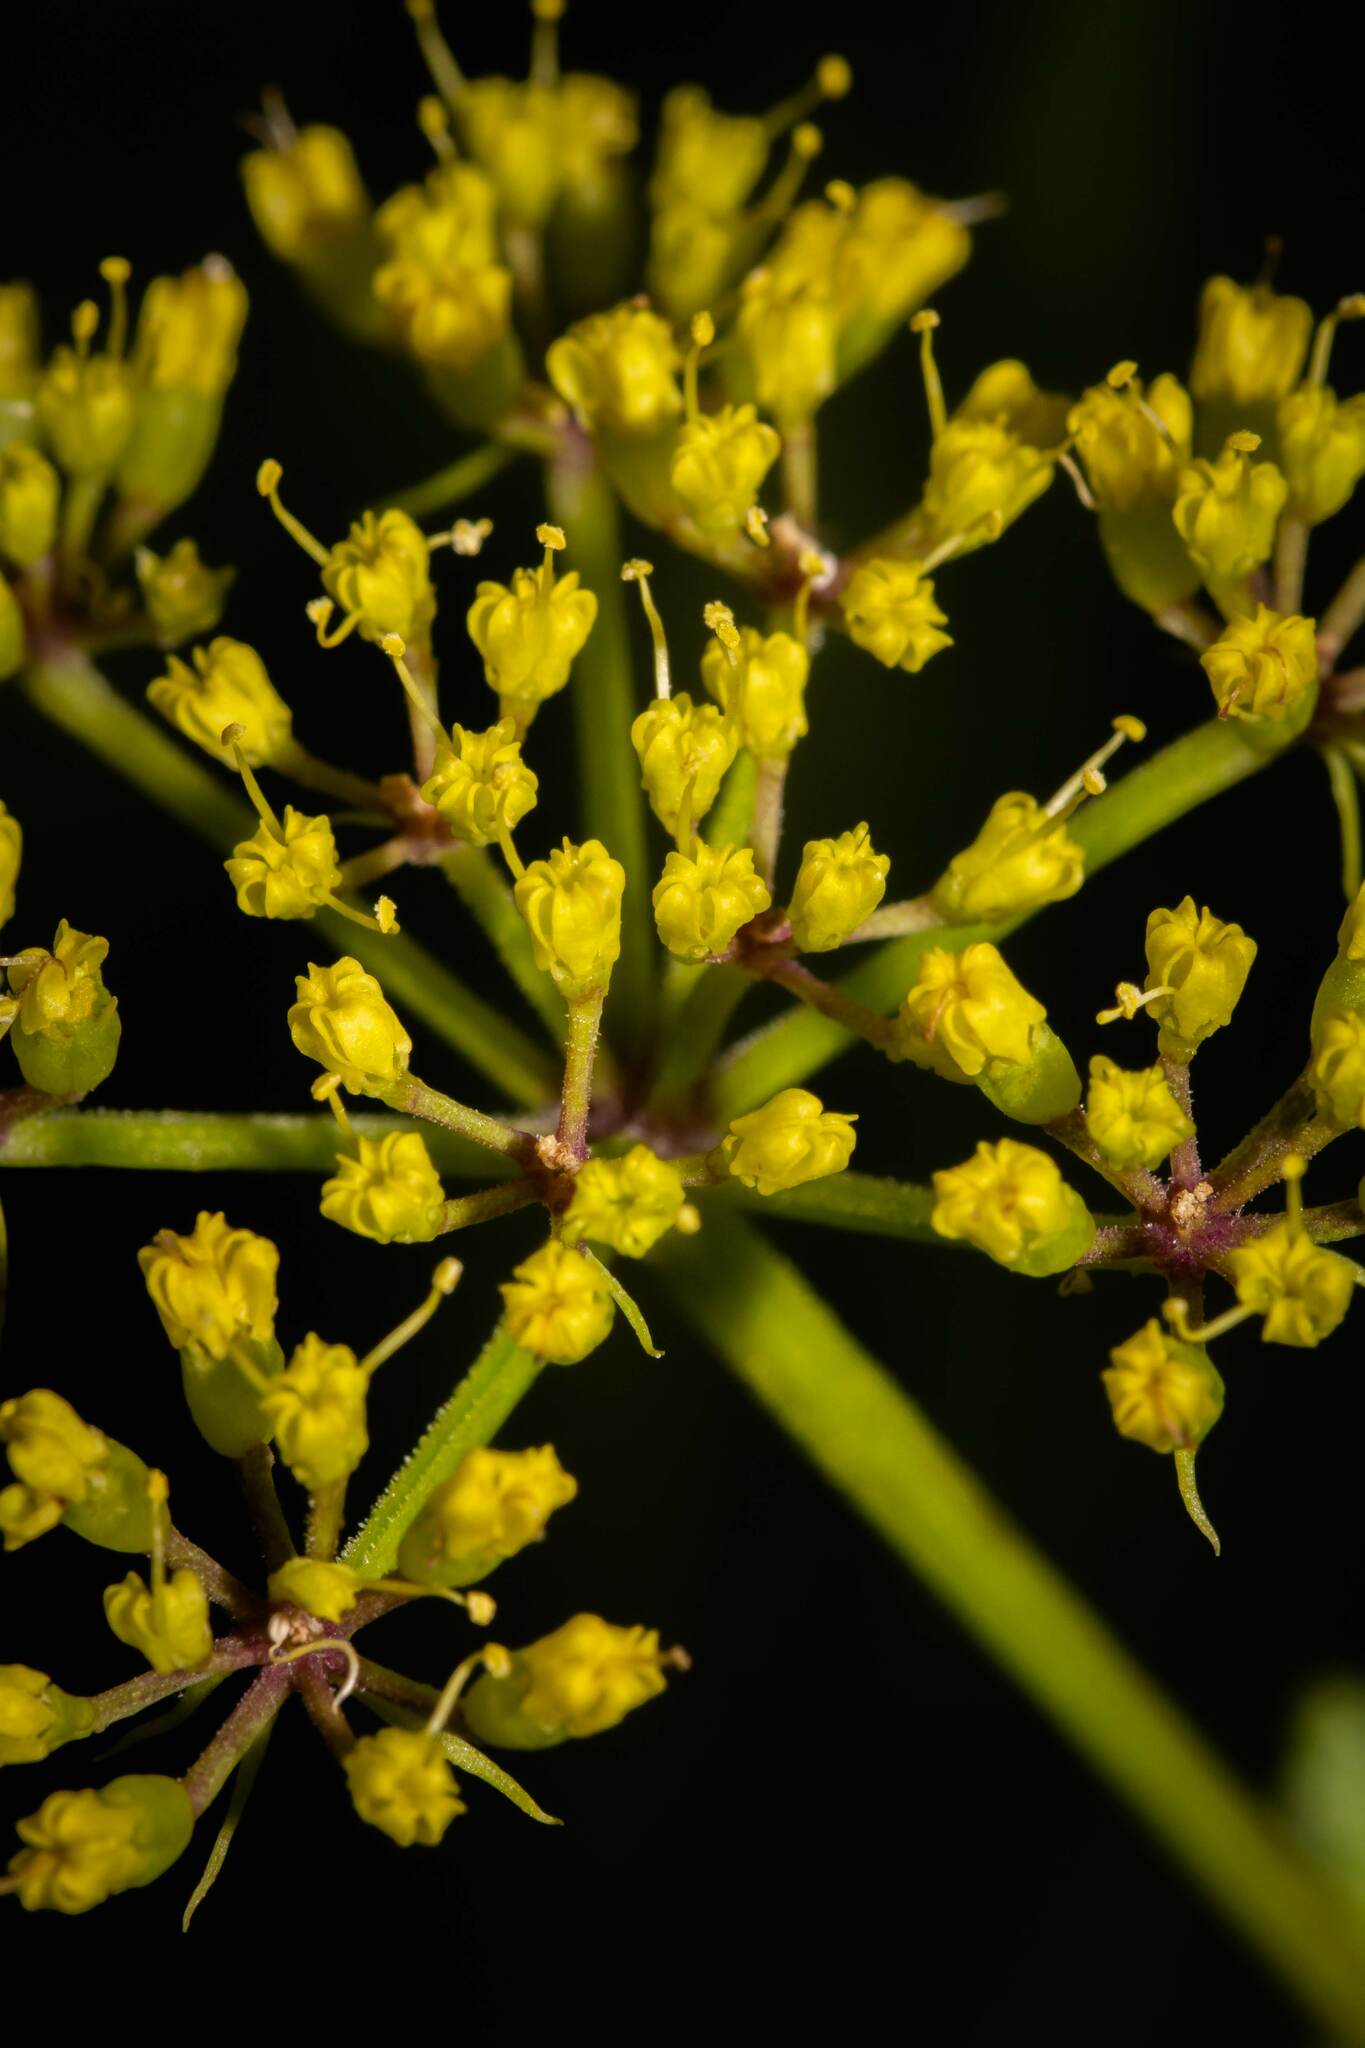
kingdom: Plantae
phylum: Tracheophyta
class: Magnoliopsida
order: Apiales
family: Apiaceae
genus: Polytaenia
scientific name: Polytaenia nuttallii
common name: Prairie-parsley
